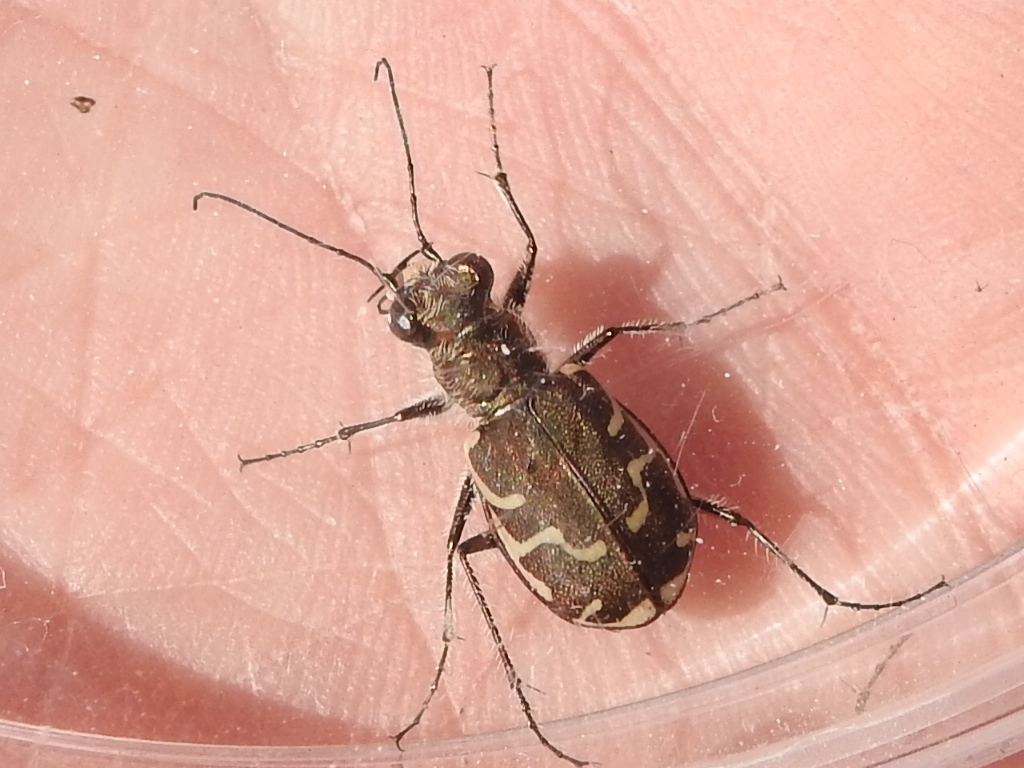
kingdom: Animalia
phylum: Arthropoda
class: Insecta
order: Coleoptera
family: Carabidae
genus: Cicindela
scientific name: Cicindela repanda
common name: Bronzed tiger beetle
